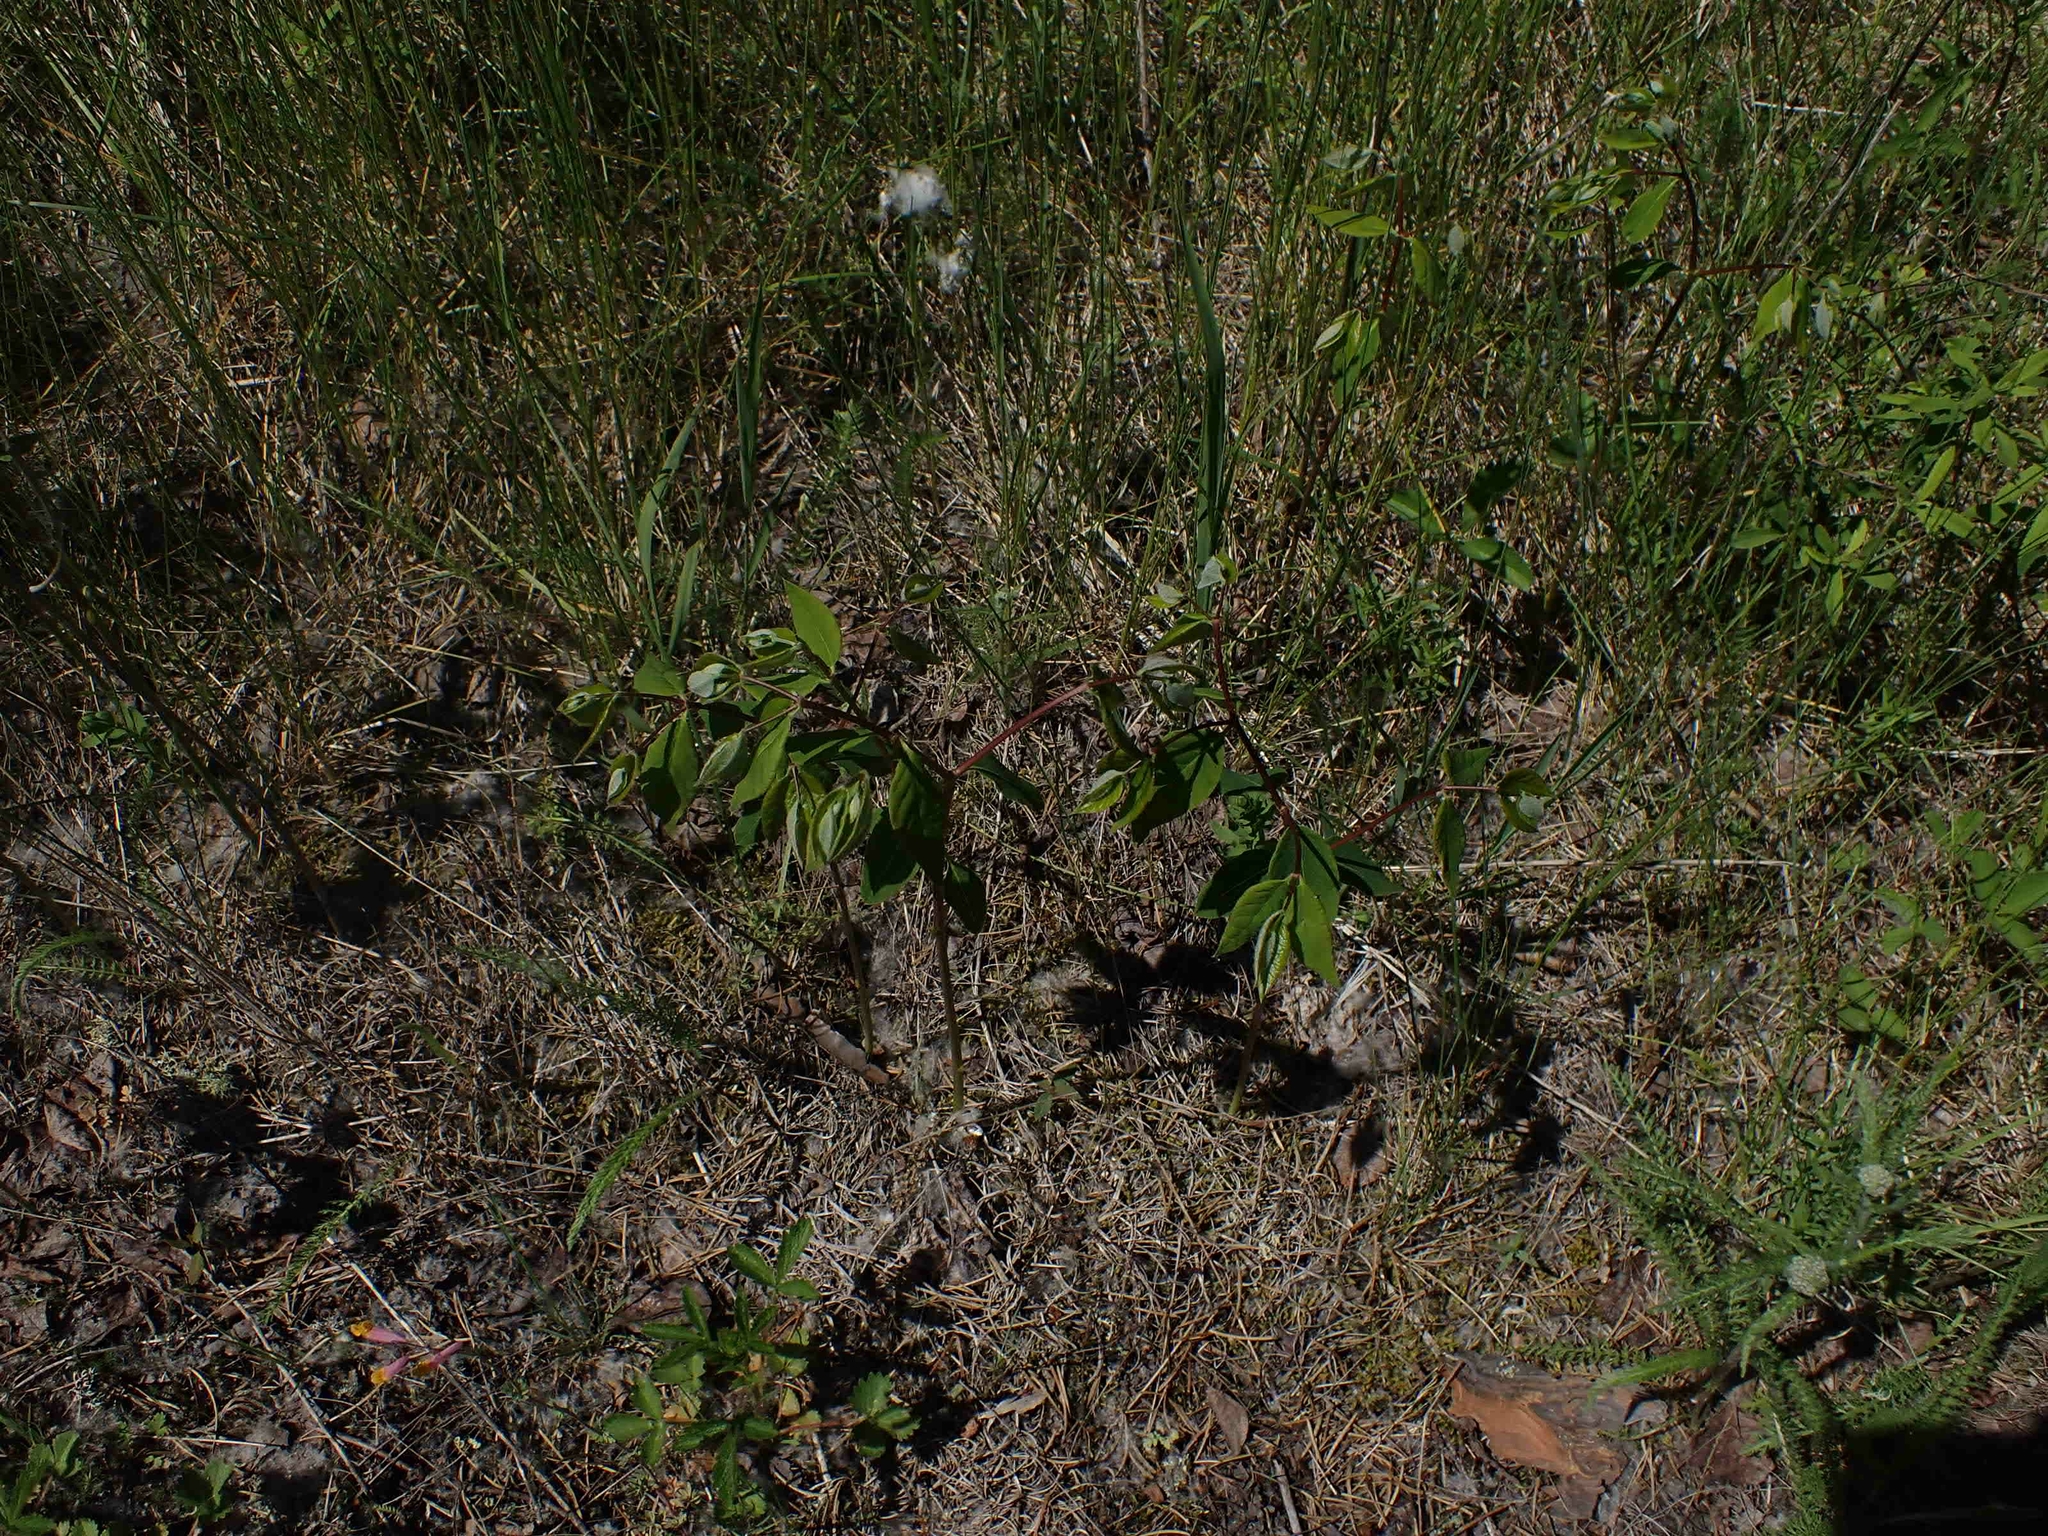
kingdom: Plantae
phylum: Tracheophyta
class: Magnoliopsida
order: Gentianales
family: Apocynaceae
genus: Apocynum
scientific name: Apocynum androsaemifolium
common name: Spreading dogbane
